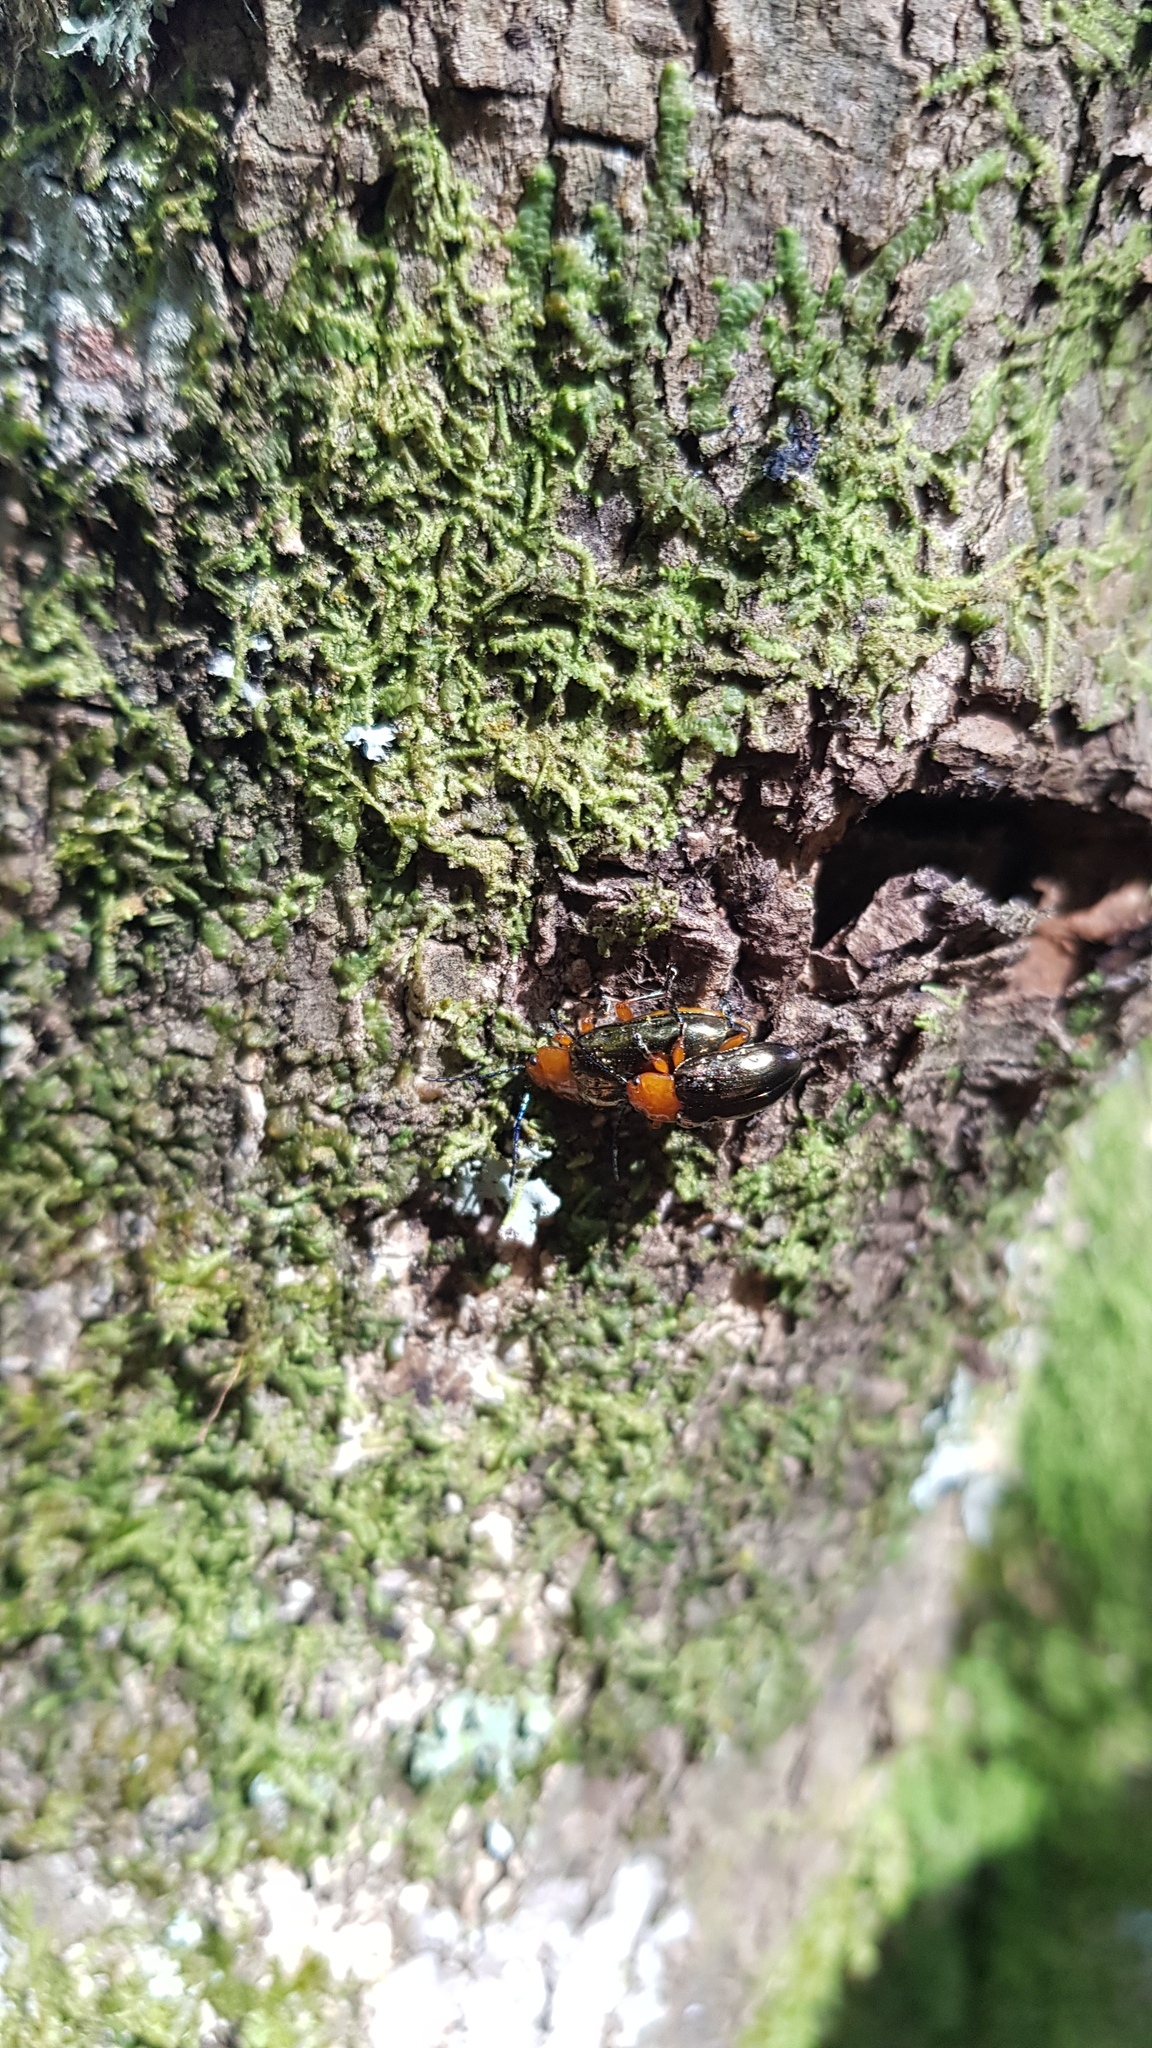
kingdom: Animalia
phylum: Arthropoda
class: Insecta
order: Coleoptera
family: Chrysomelidae
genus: Lamprolina
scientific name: Lamprolina
